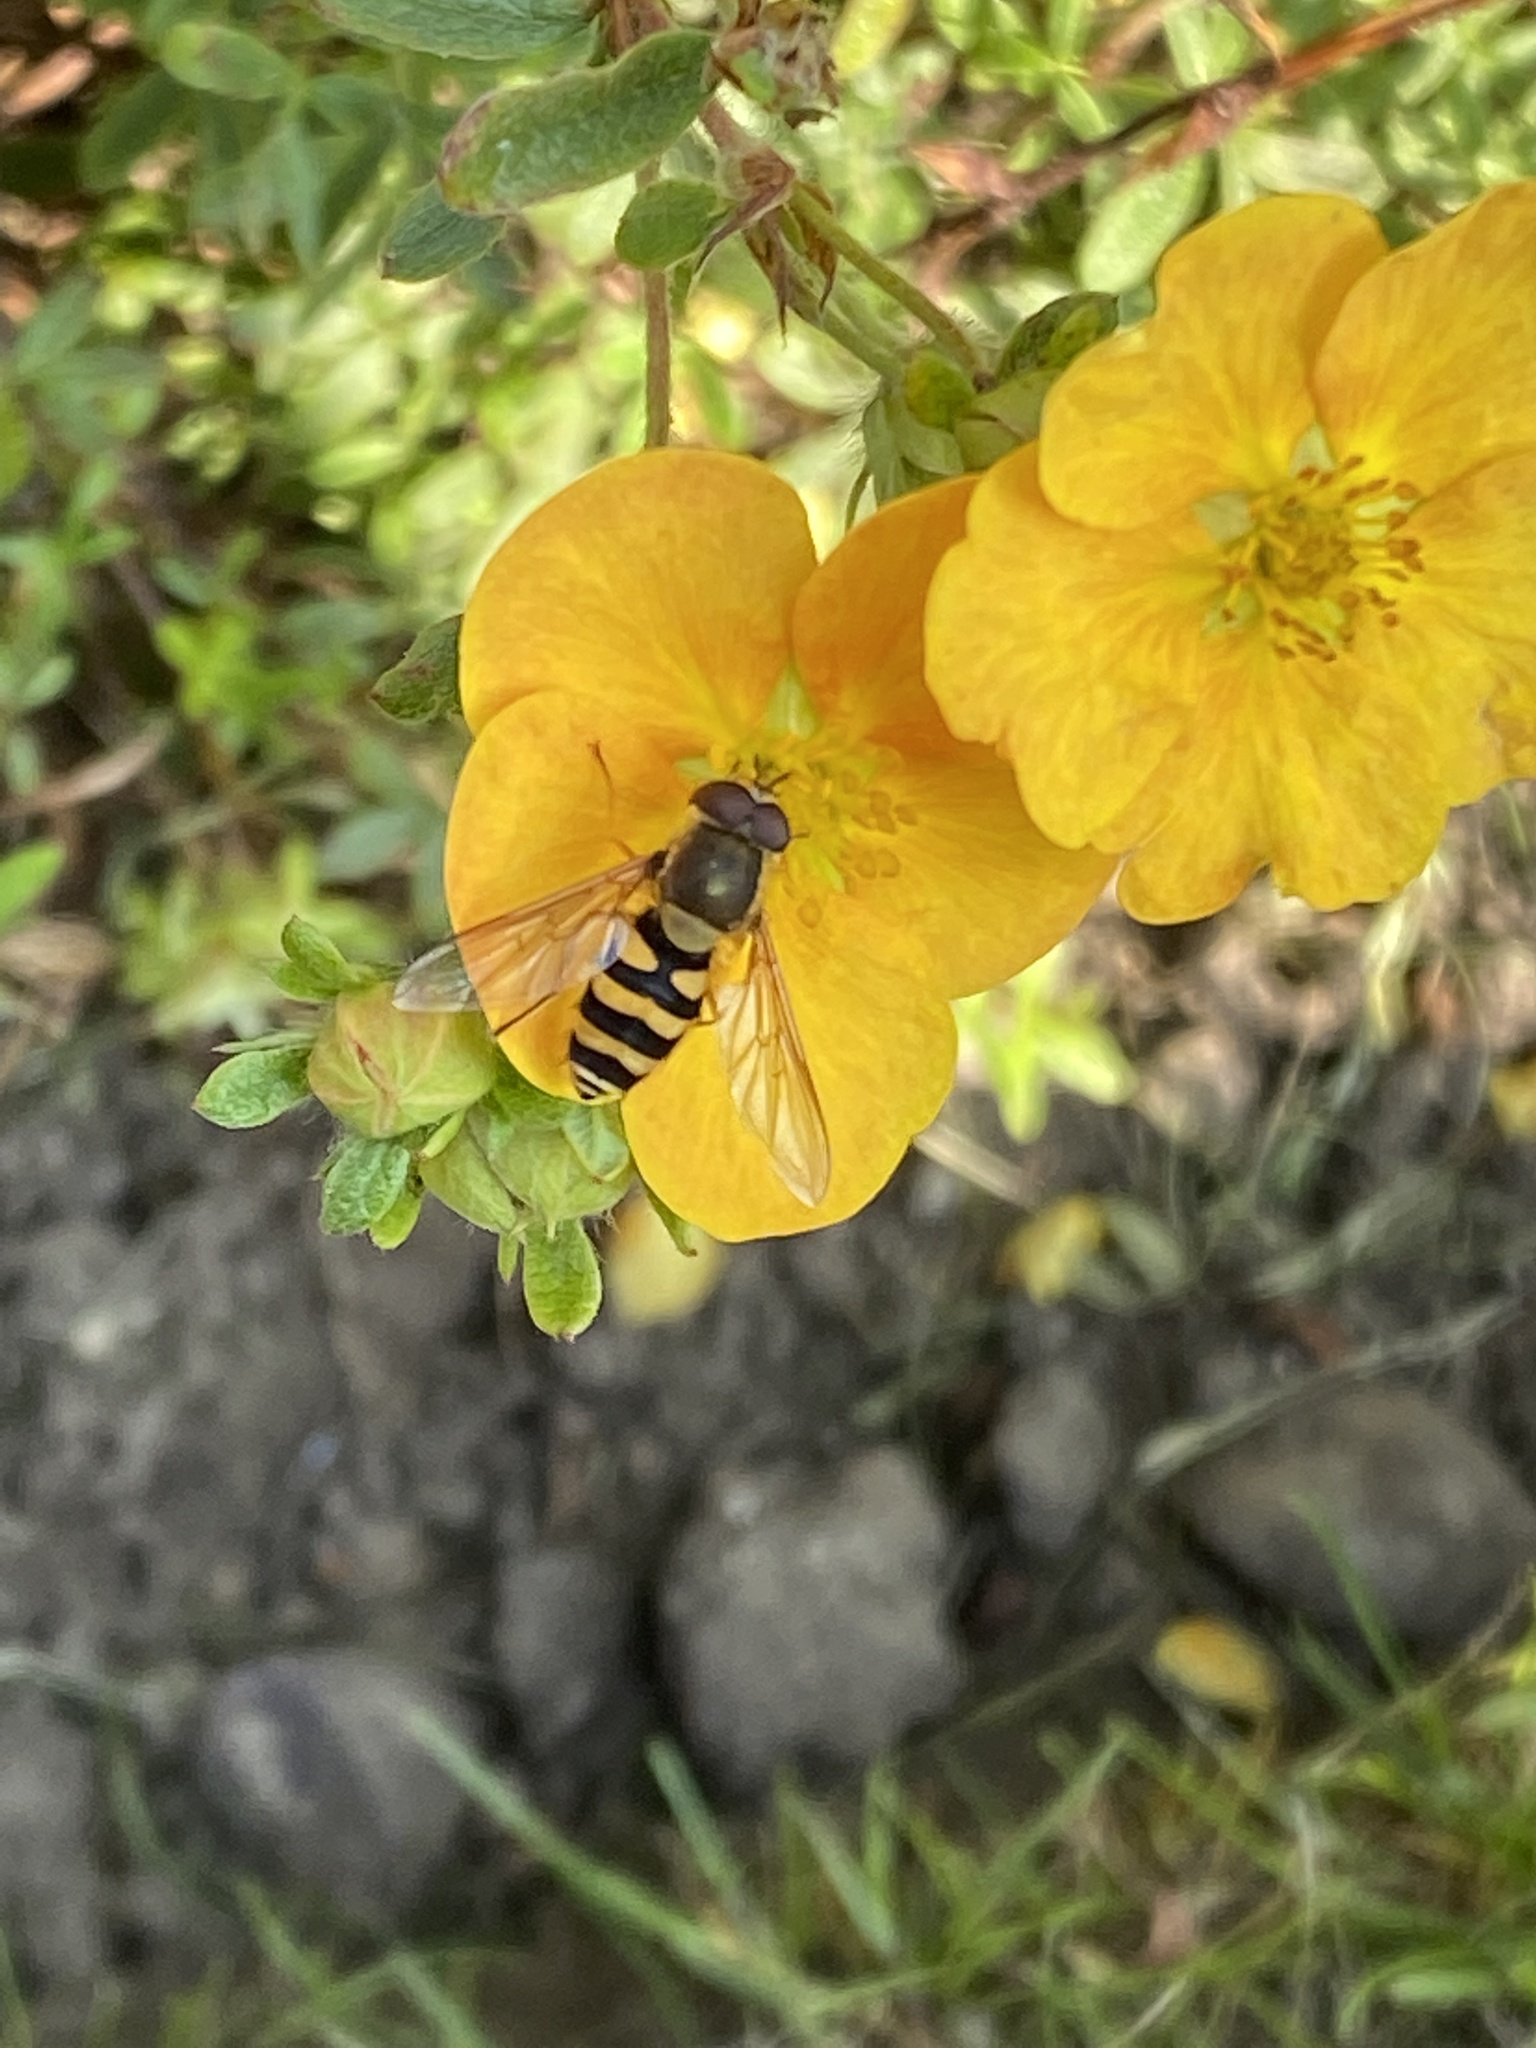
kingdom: Animalia
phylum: Arthropoda
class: Insecta
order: Diptera
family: Syrphidae
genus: Syrphus
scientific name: Syrphus
